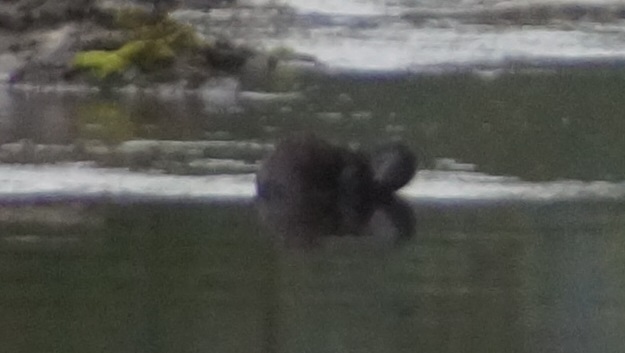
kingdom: Animalia
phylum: Chordata
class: Mammalia
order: Carnivora
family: Mustelidae
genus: Mustela
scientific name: Mustela
